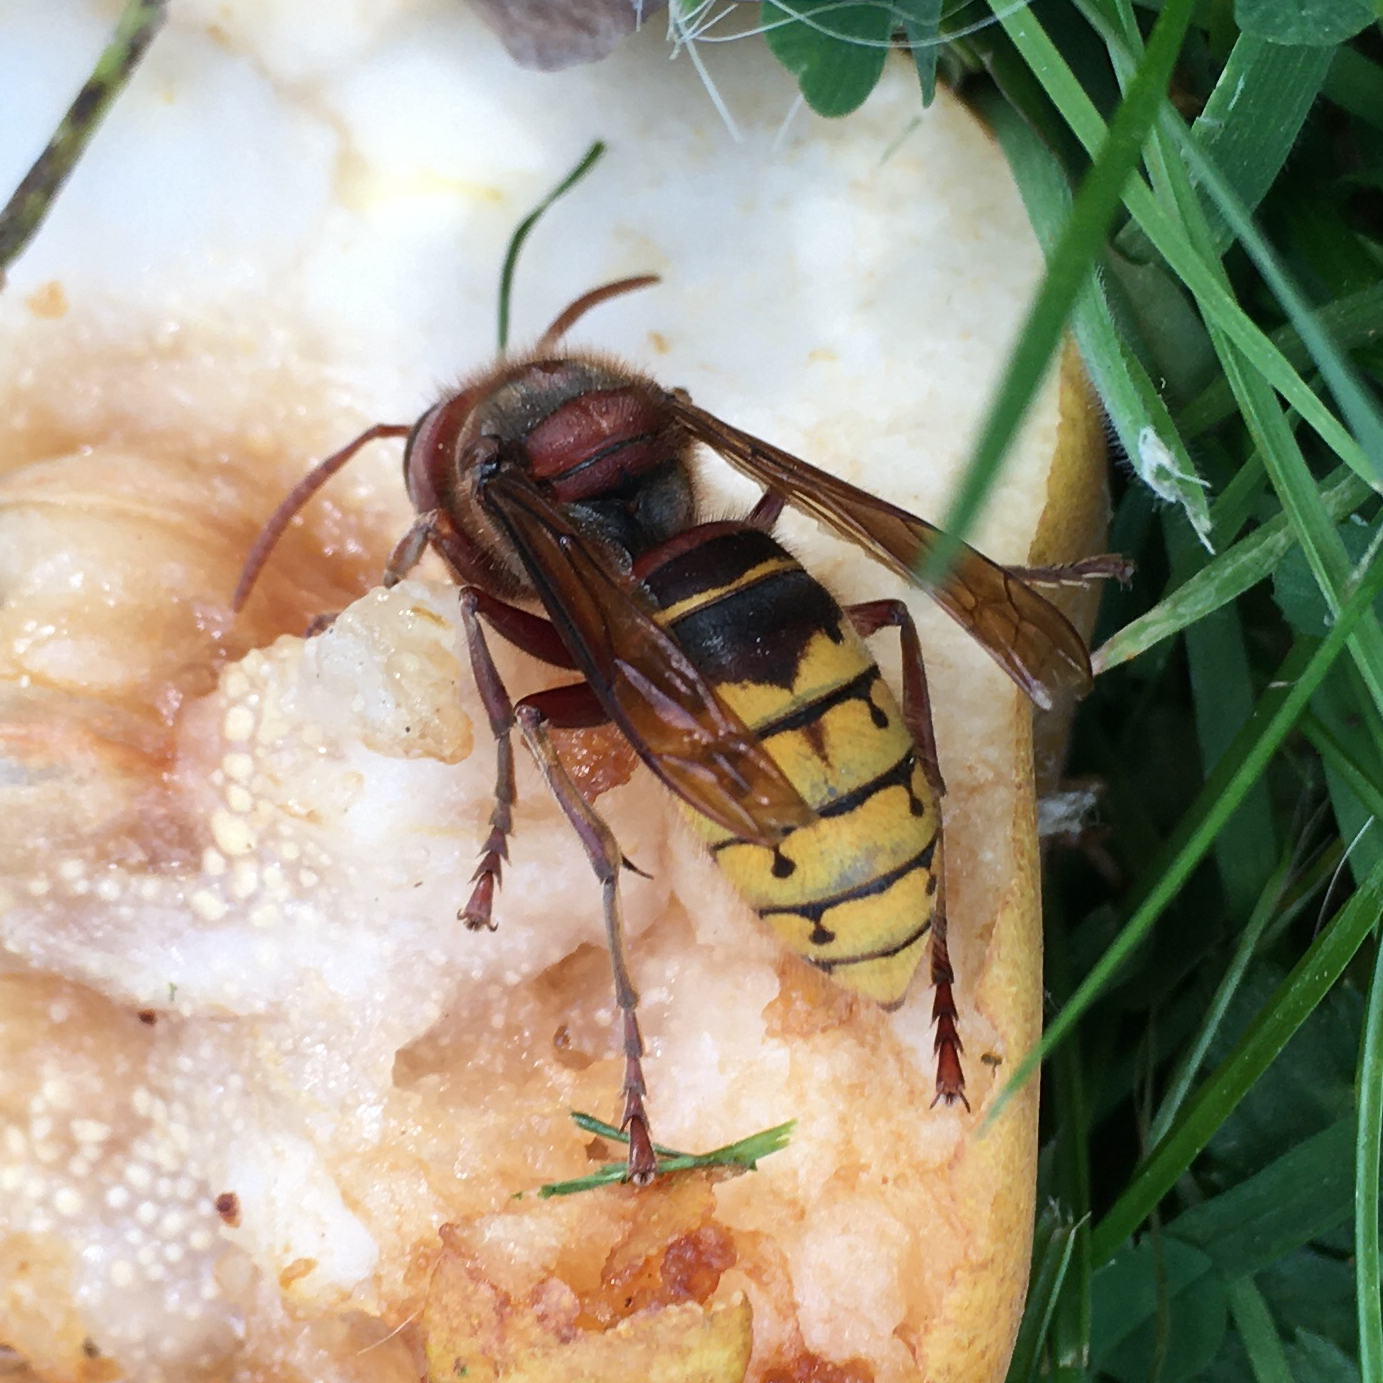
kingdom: Animalia
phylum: Arthropoda
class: Insecta
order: Hymenoptera
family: Vespidae
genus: Vespa
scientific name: Vespa crabro
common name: Hornet
